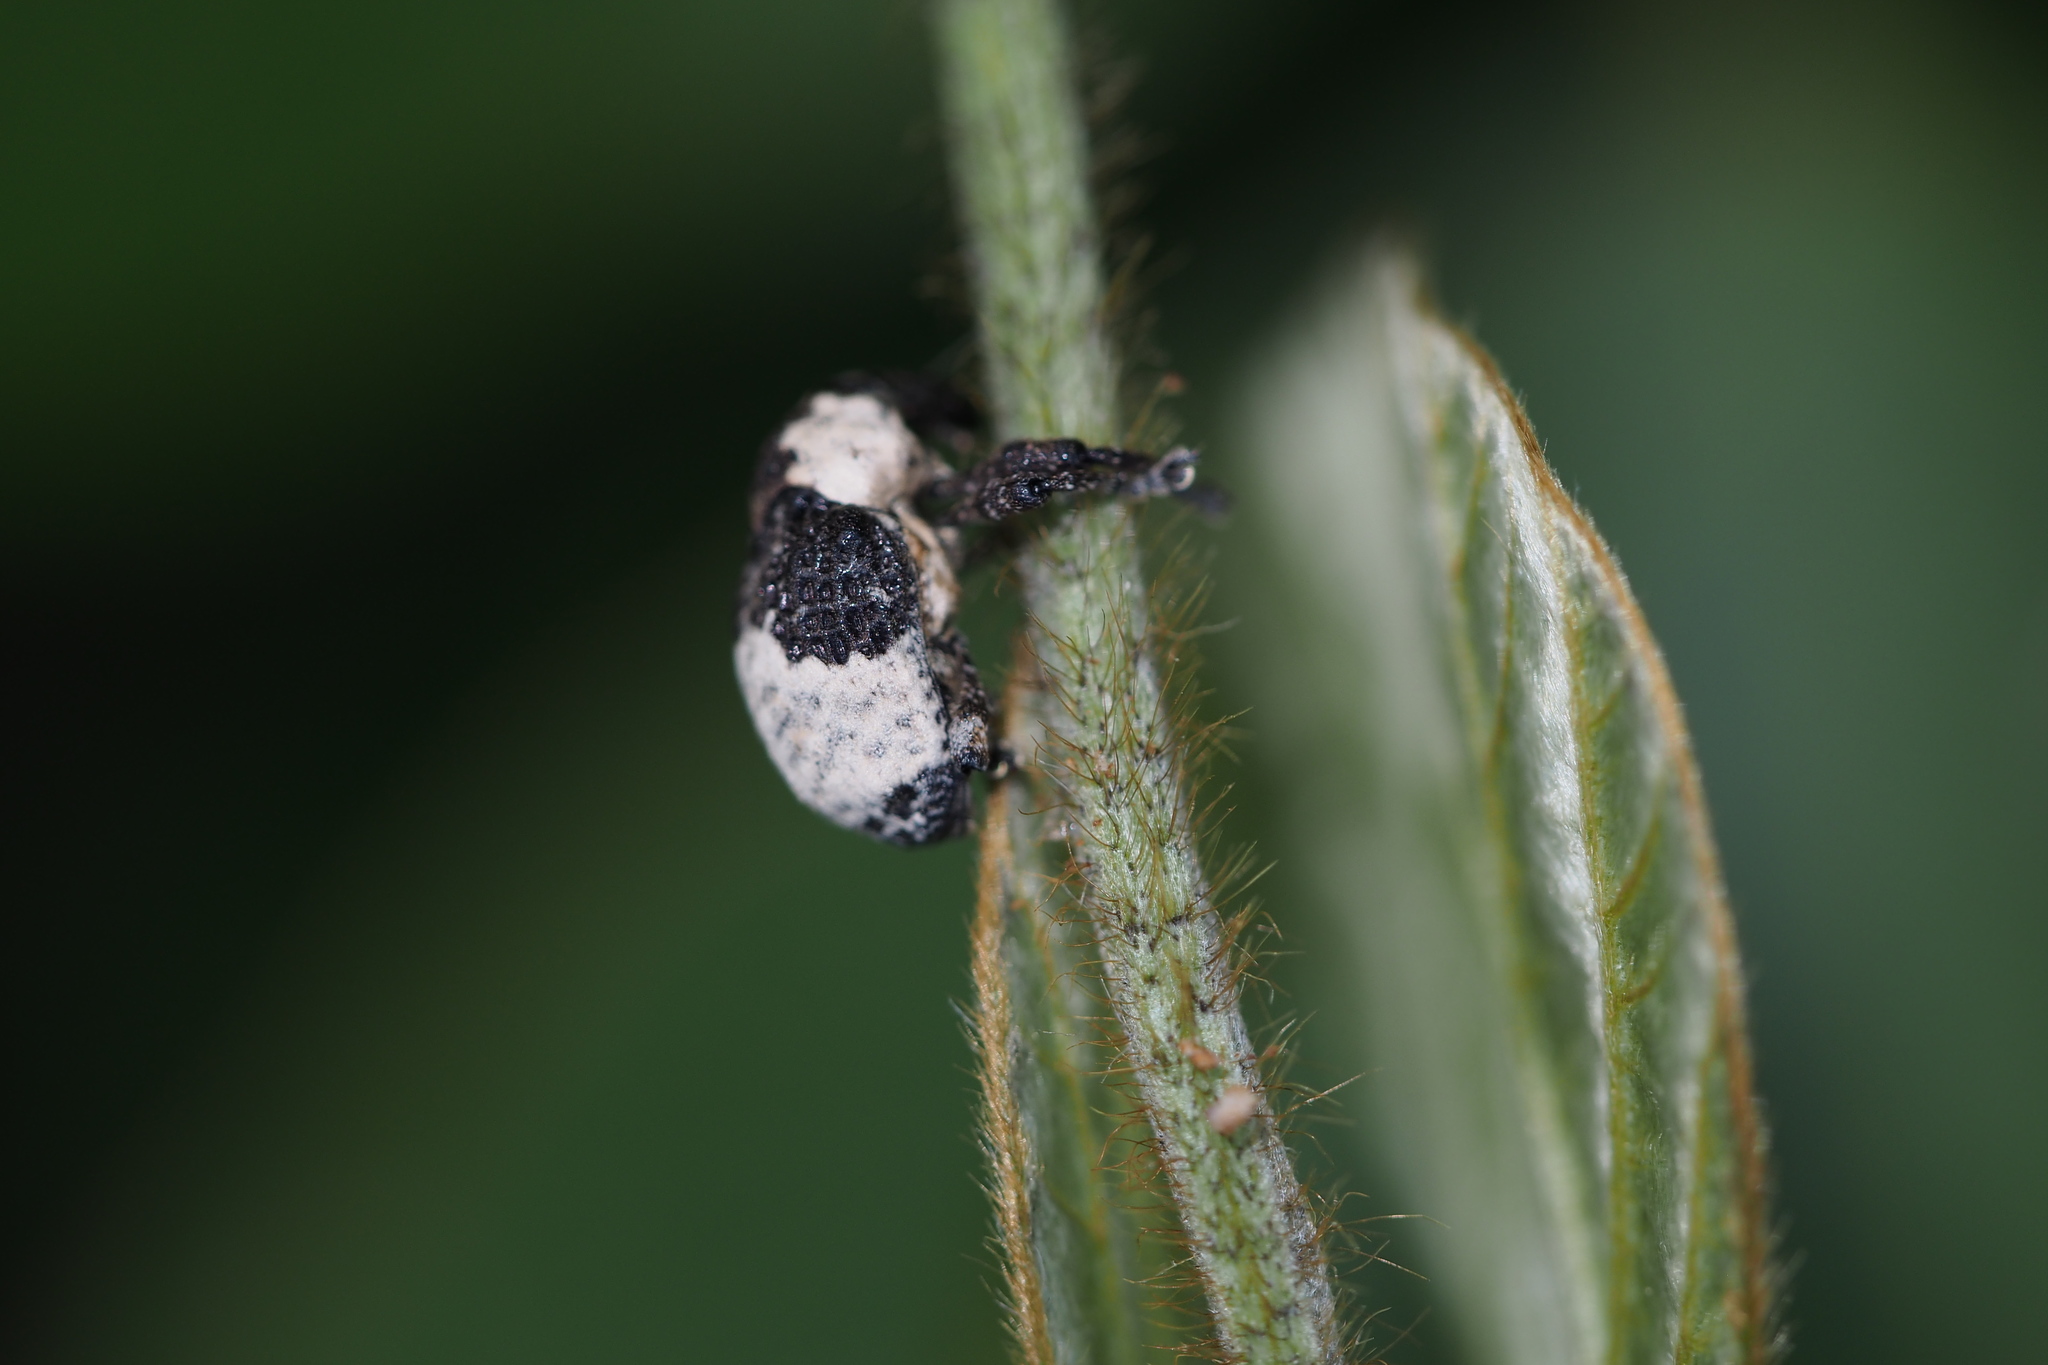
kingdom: Animalia
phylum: Arthropoda
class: Insecta
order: Coleoptera
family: Curculionidae
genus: Alcides
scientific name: Alcides trifidus
